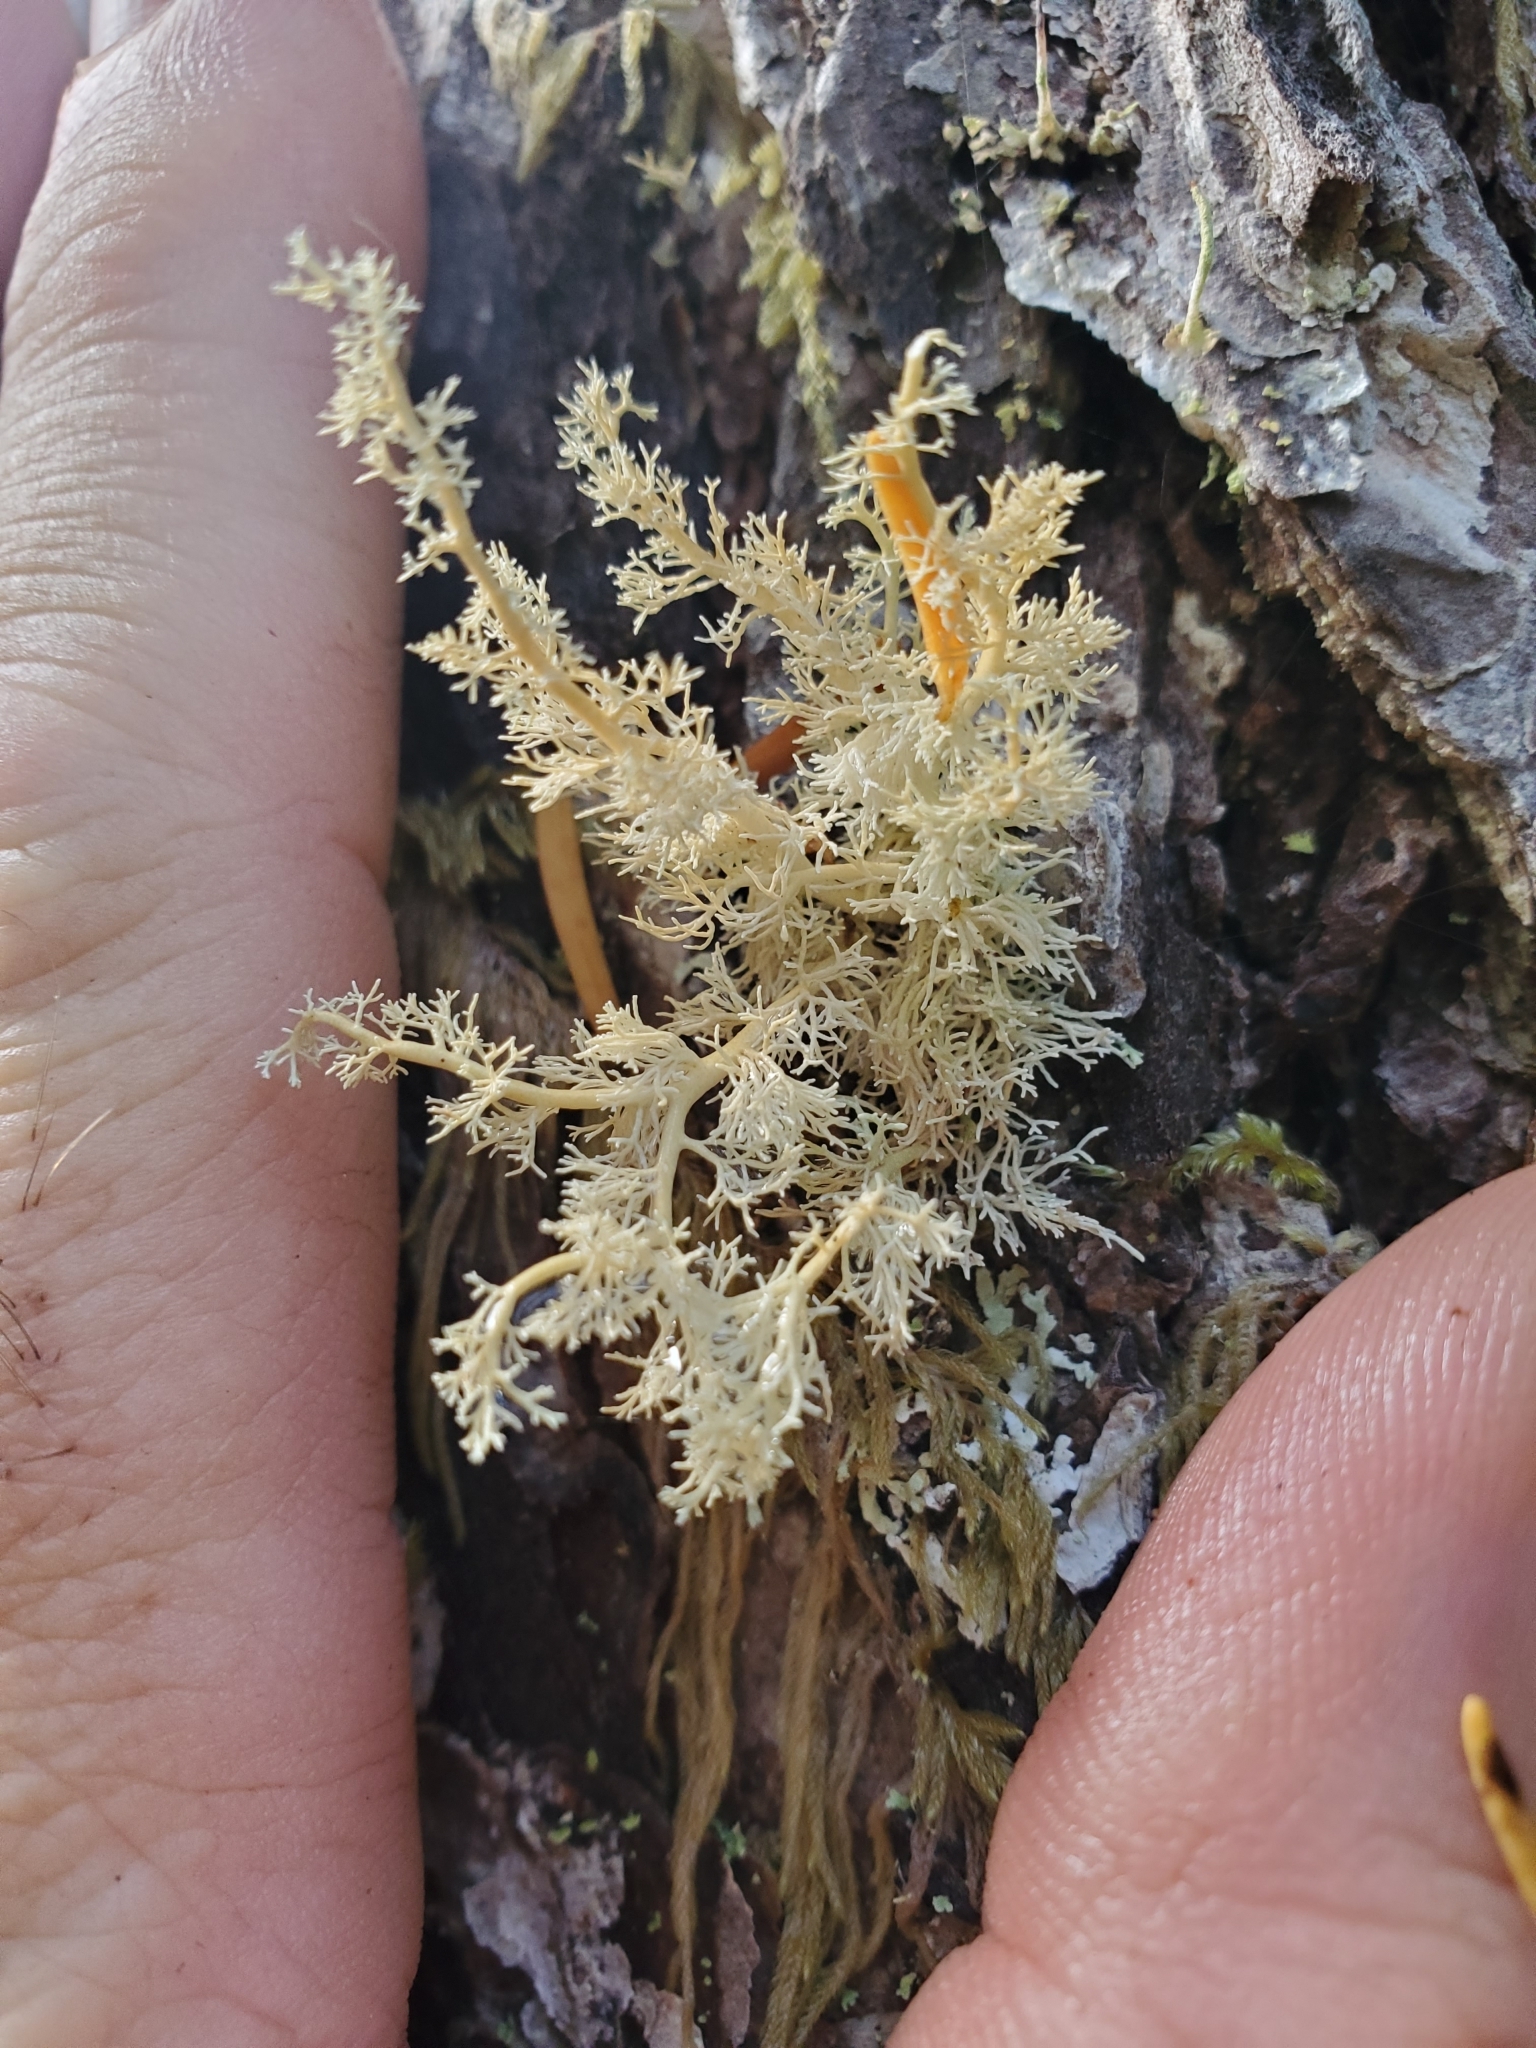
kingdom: Fungi
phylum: Ascomycota
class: Lecanoromycetes
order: Lecanorales
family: Sphaerophoraceae
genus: Sphaerophorus
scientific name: Sphaerophorus globosus
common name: Globe ball lichen
